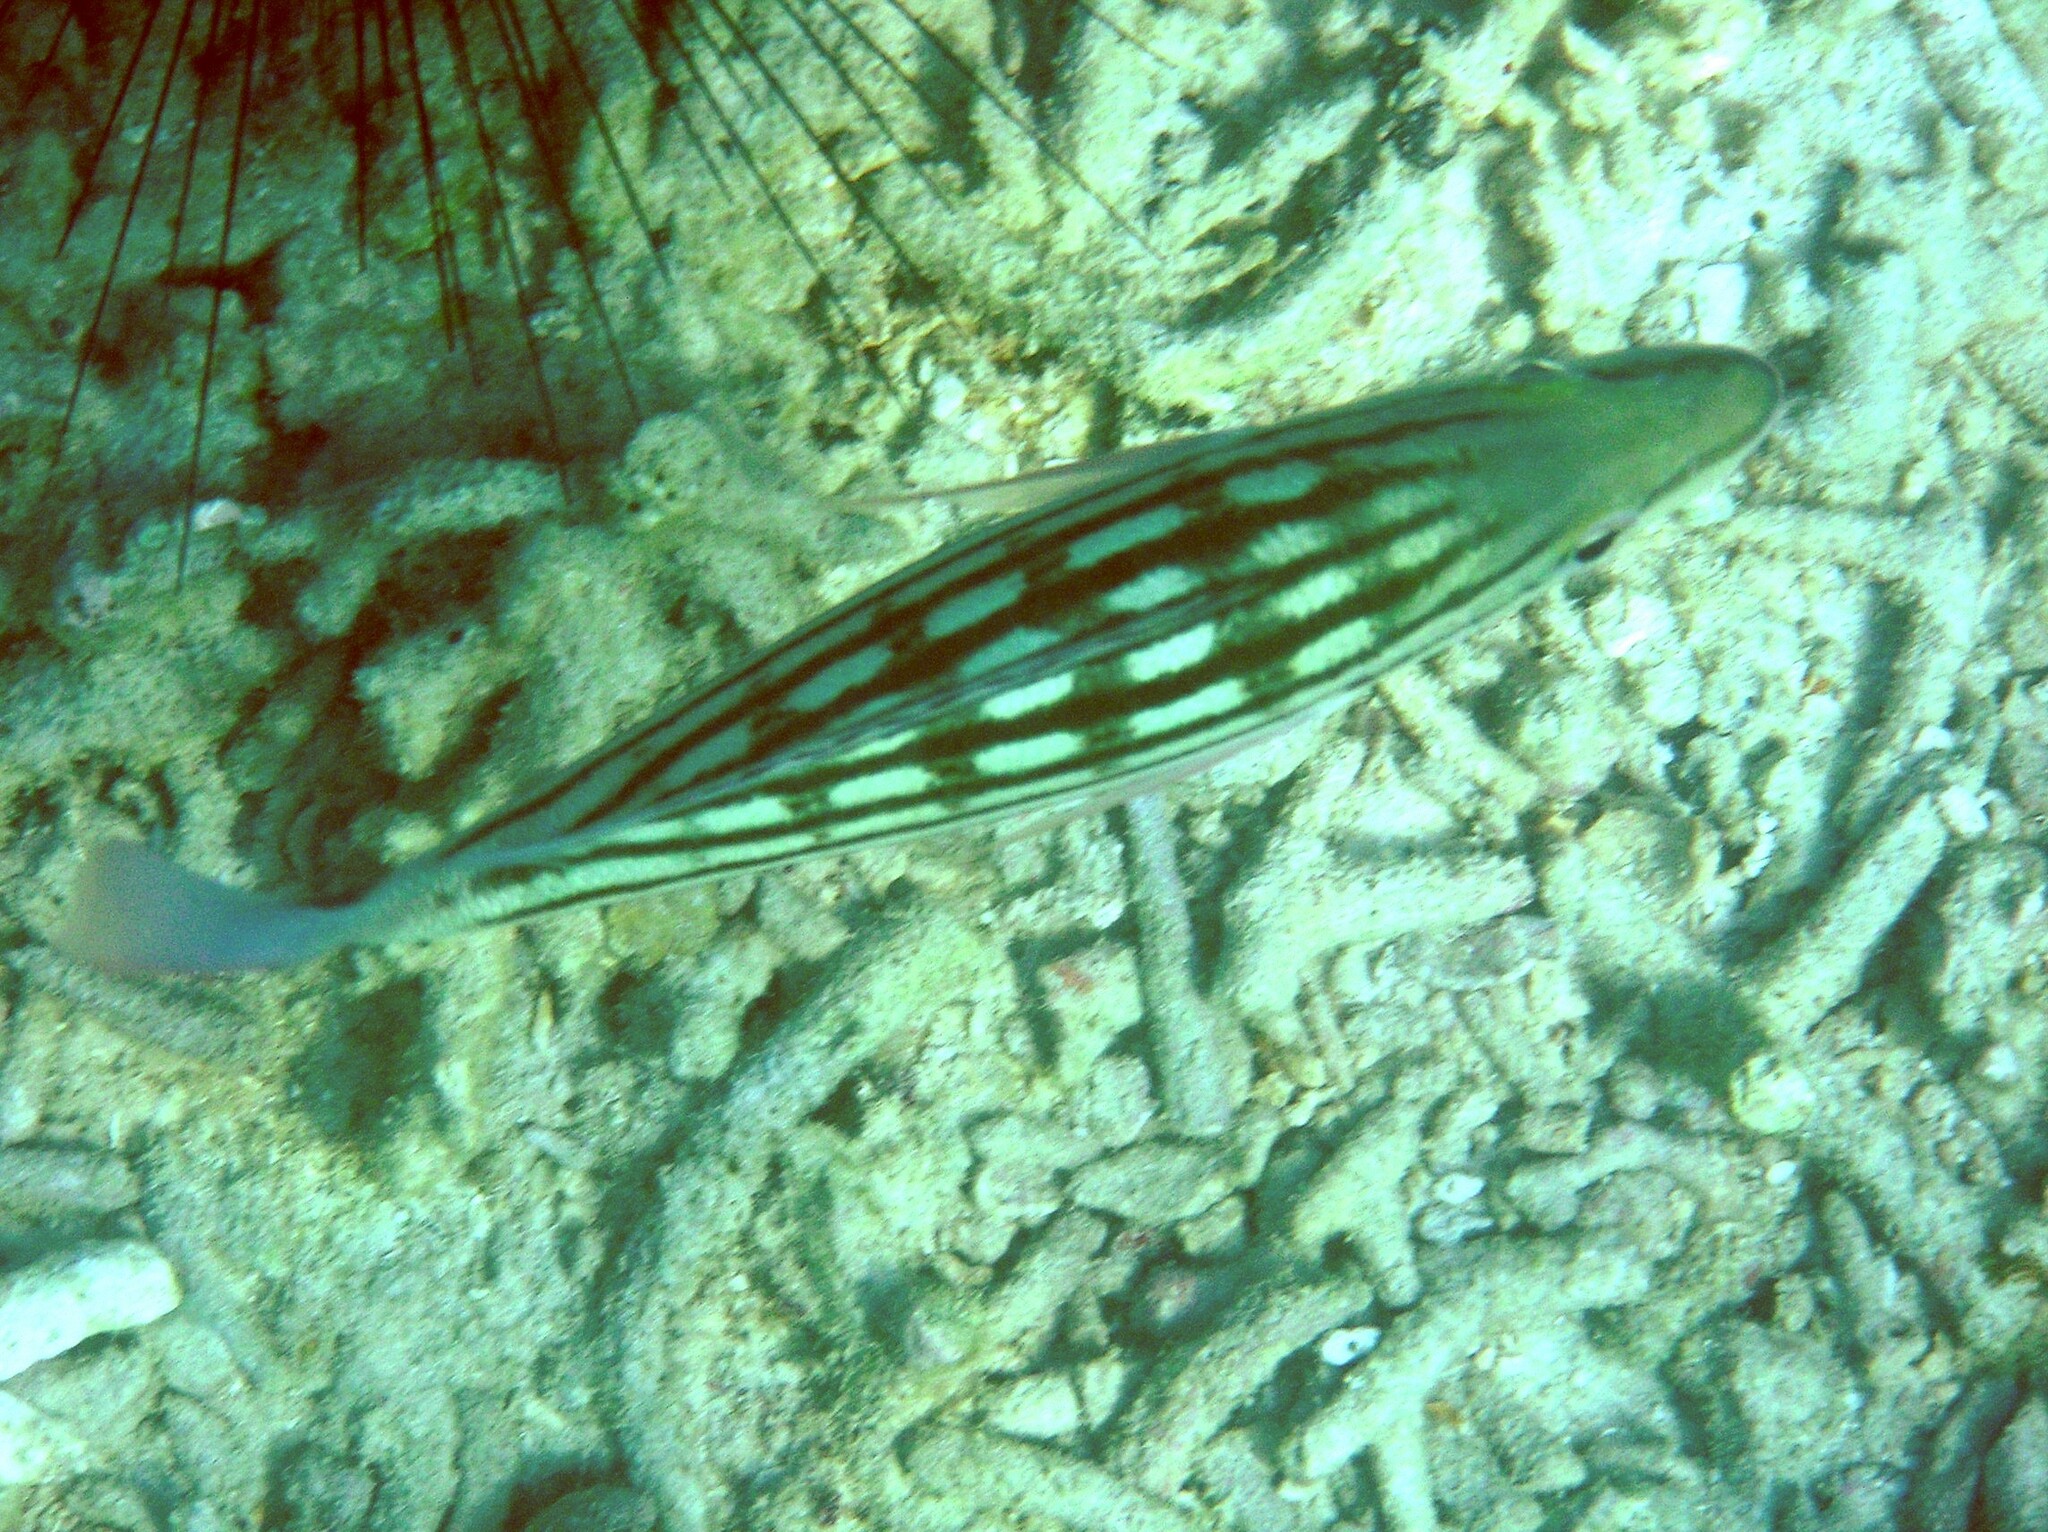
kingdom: Animalia
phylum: Chordata
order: Perciformes
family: Lutjanidae
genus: Lutjanus
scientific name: Lutjanus decussatus
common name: Checkered snapper
